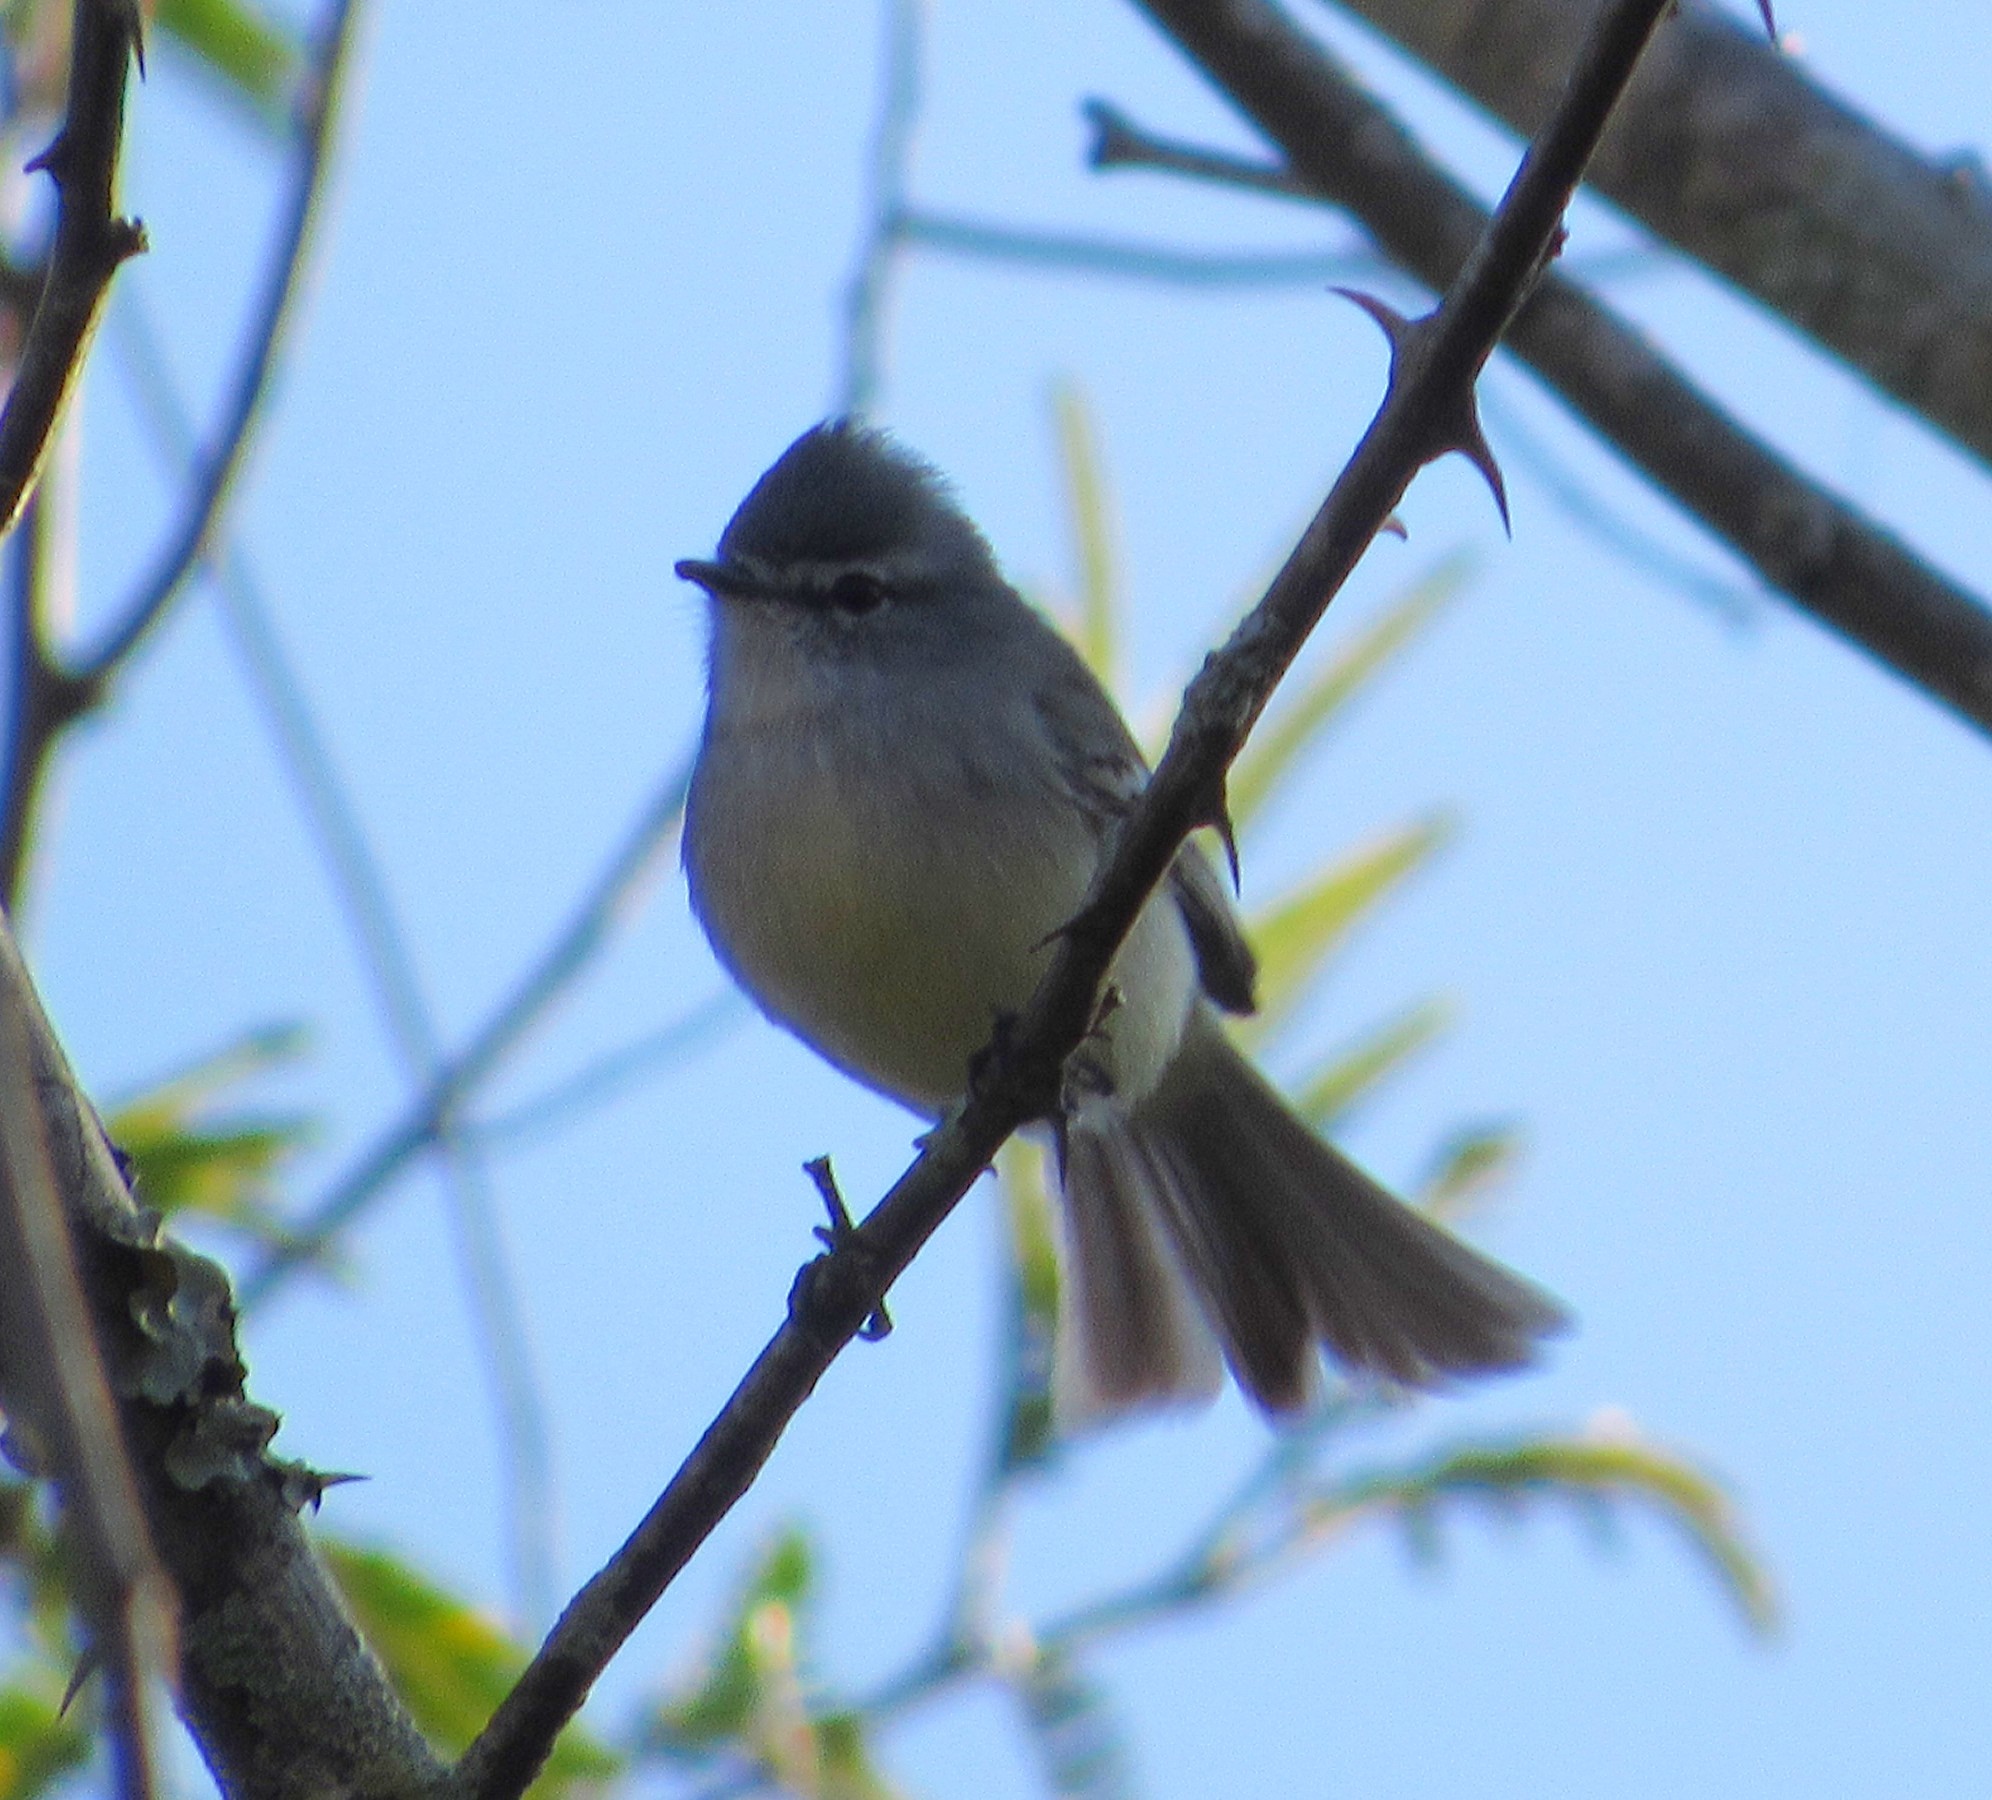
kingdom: Animalia
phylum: Chordata
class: Aves
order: Passeriformes
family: Tyrannidae
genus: Serpophaga
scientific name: Serpophaga subcristata
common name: White-crested tyrannulet
